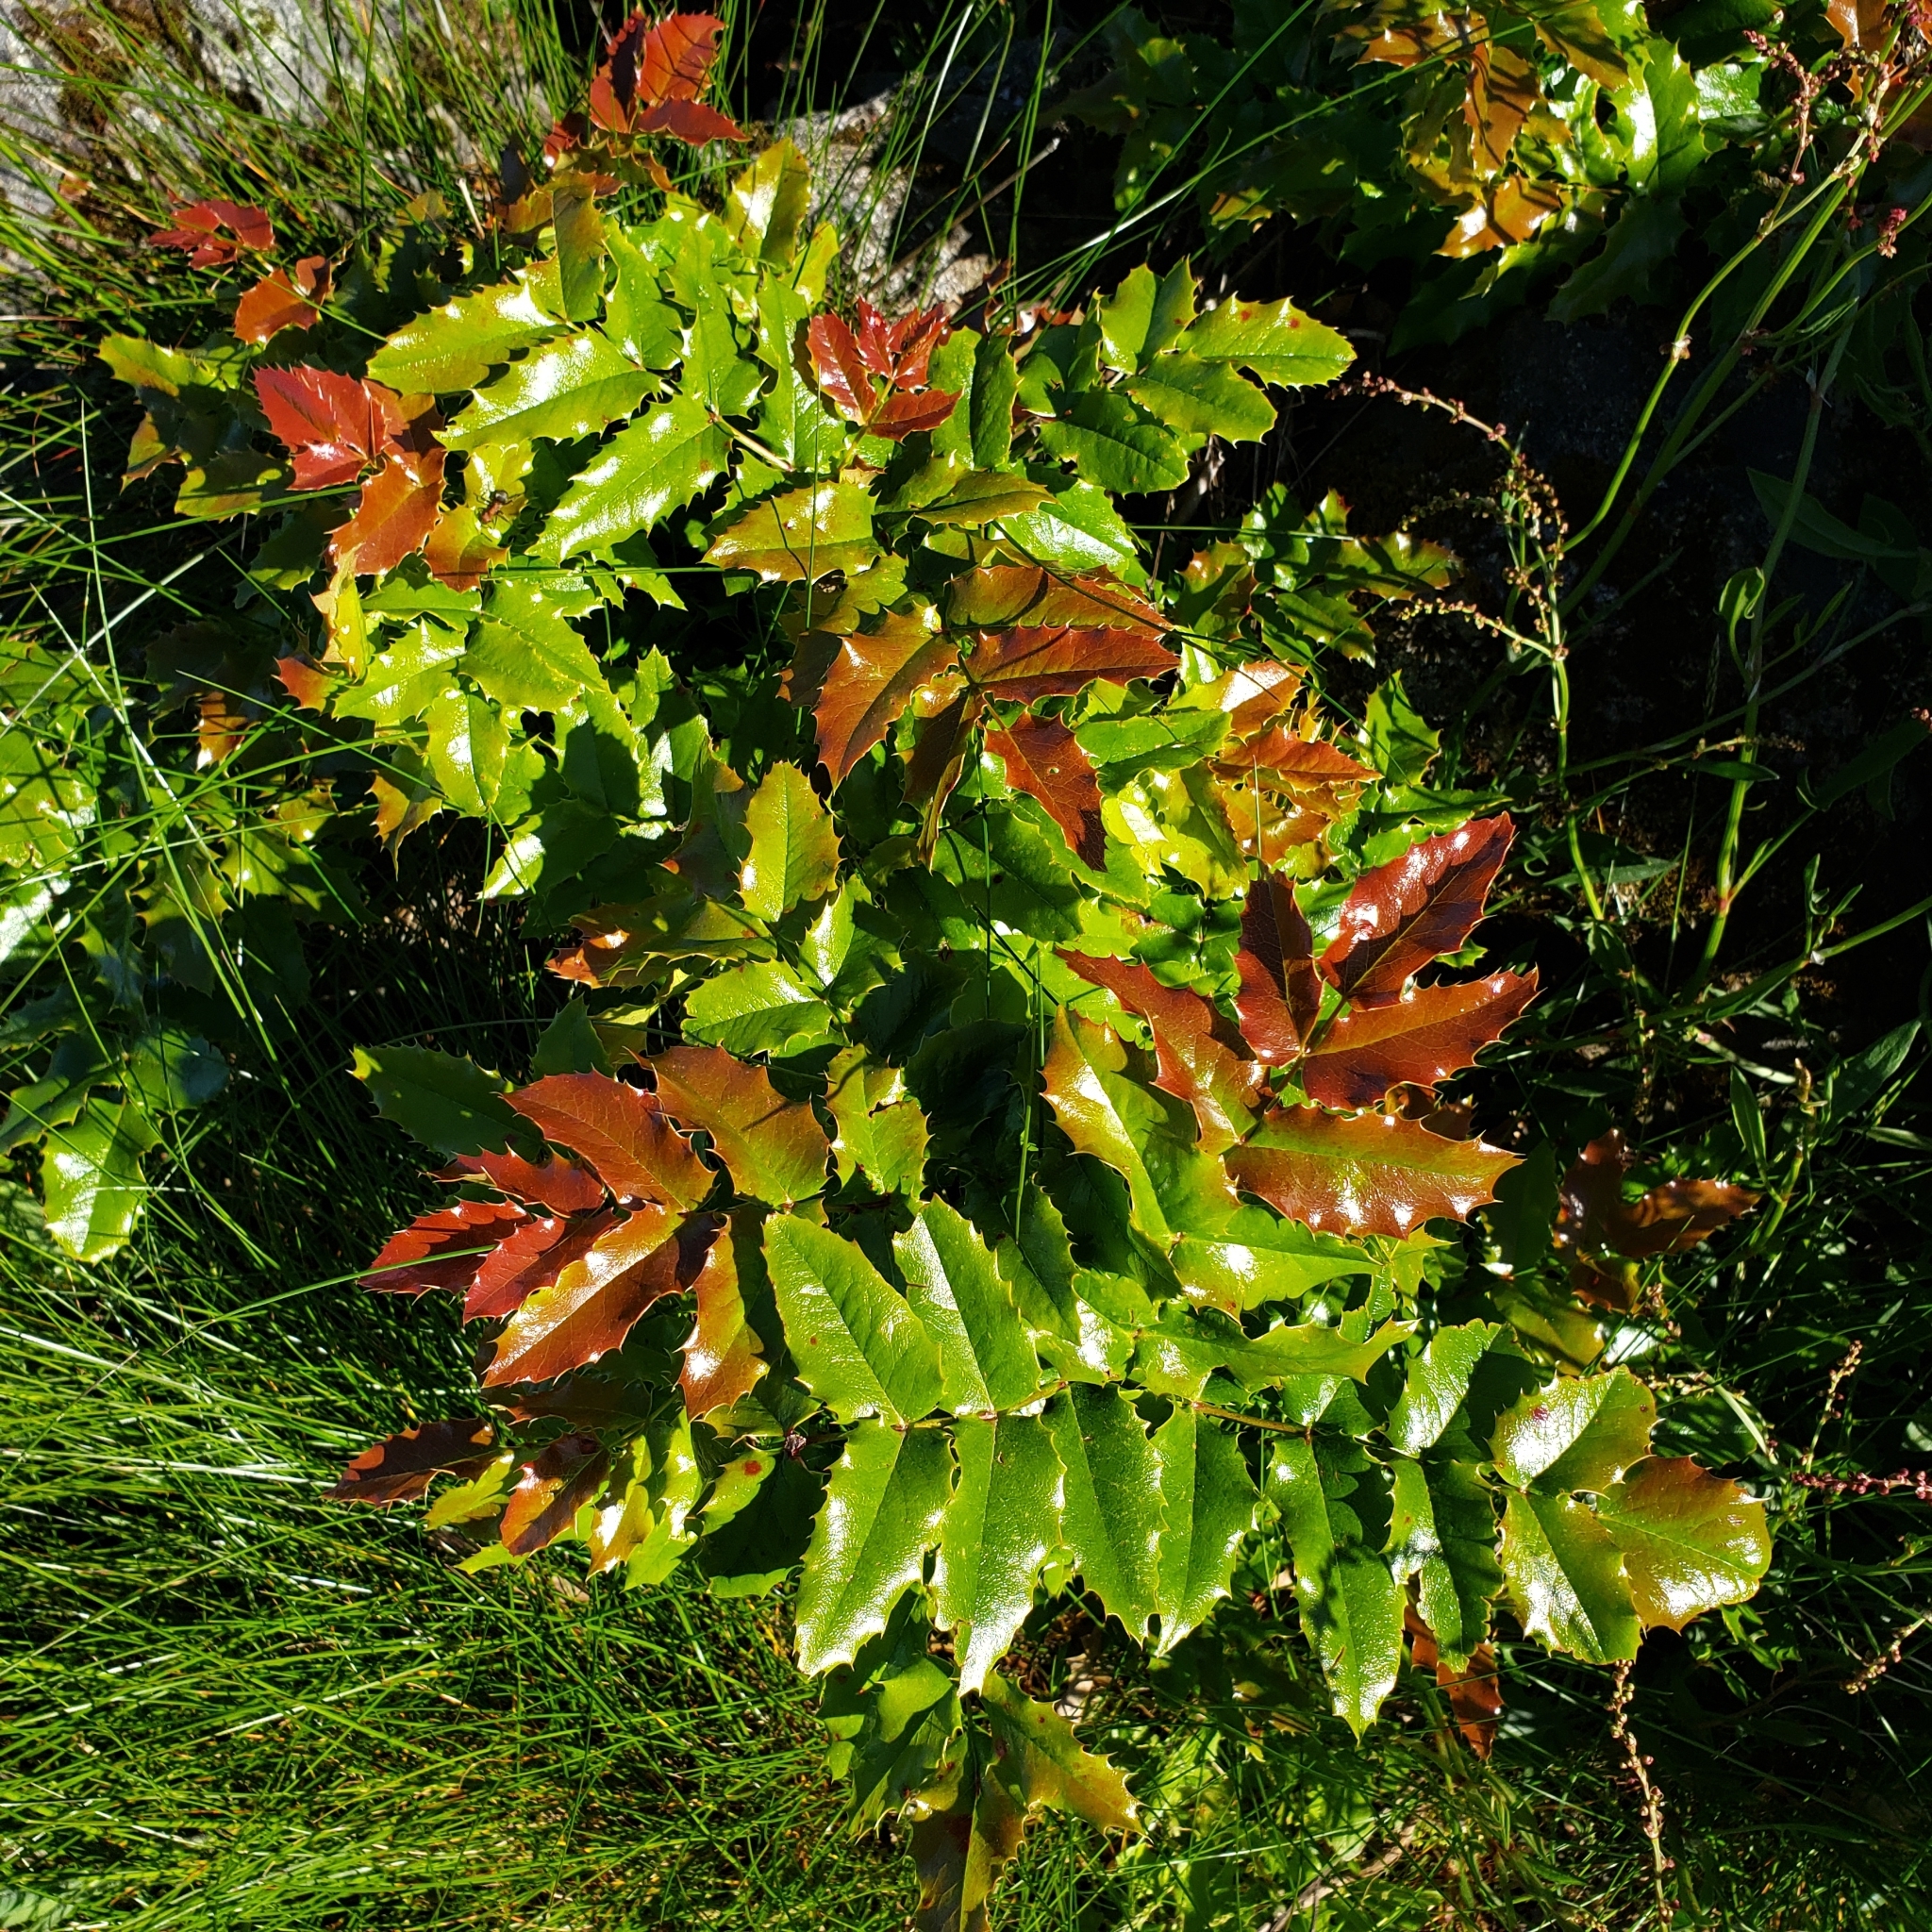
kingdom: Plantae
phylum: Tracheophyta
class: Magnoliopsida
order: Ranunculales
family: Berberidaceae
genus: Mahonia
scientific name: Mahonia aquifolium
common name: Oregon-grape
